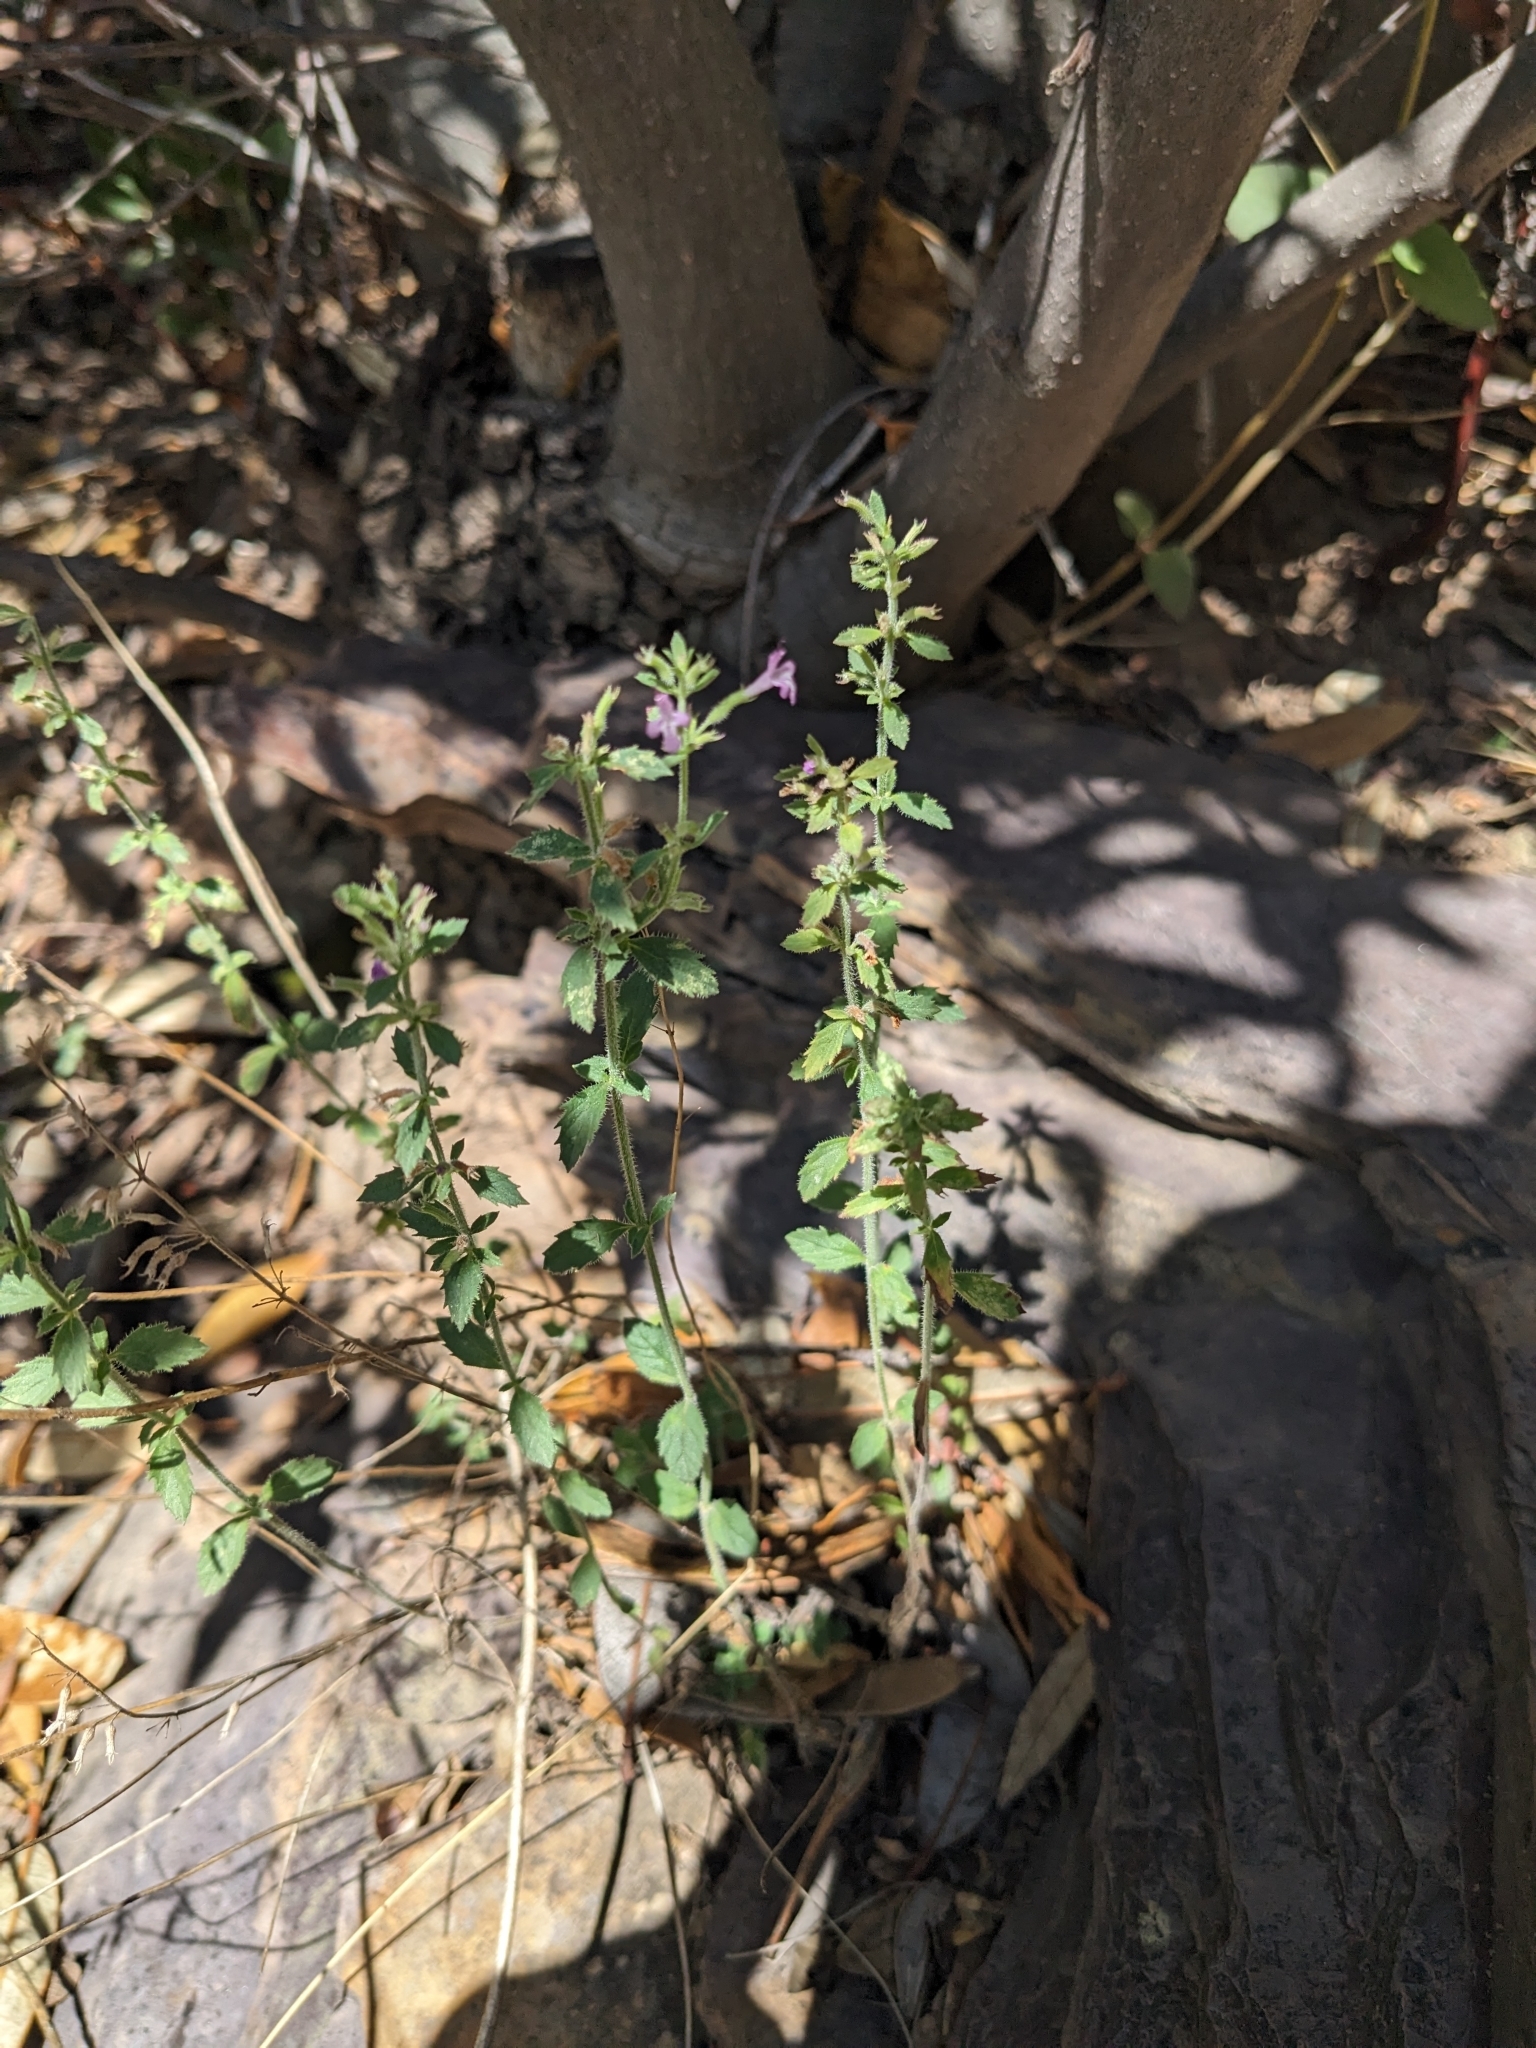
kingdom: Plantae
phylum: Tracheophyta
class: Magnoliopsida
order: Lamiales
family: Lamiaceae
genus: Hedeoma
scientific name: Hedeoma dentata
